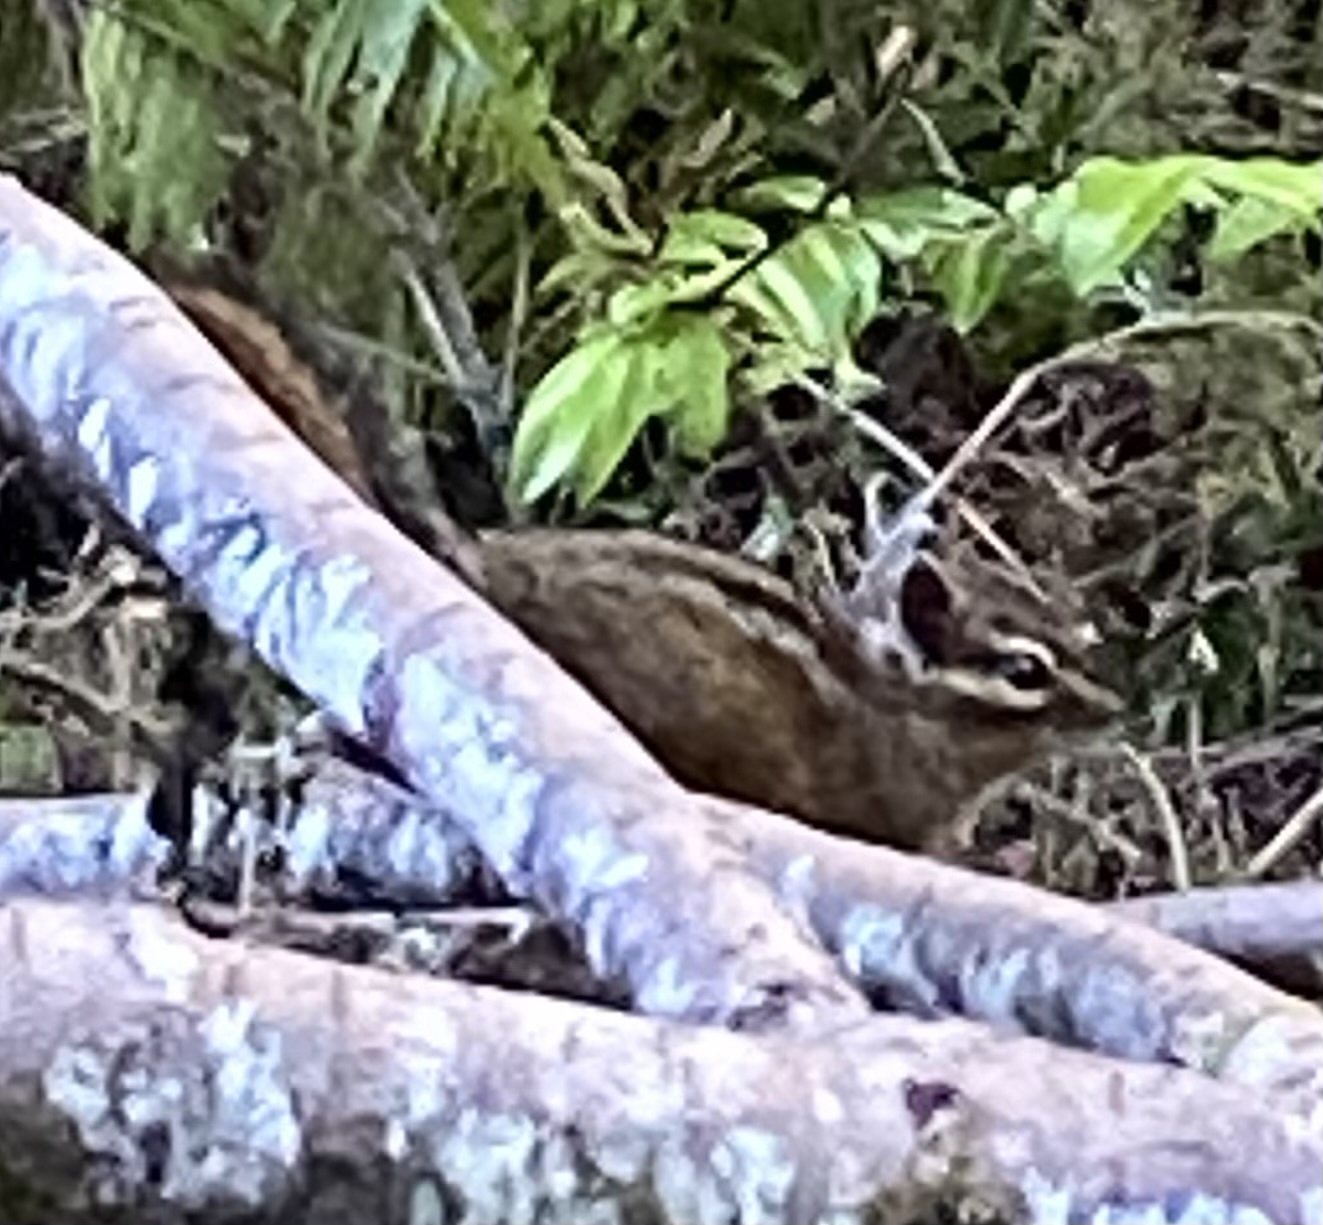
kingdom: Animalia
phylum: Chordata
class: Mammalia
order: Rodentia
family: Sciuridae
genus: Tamias
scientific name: Tamias townsendii
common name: Townsend's chipmunk
